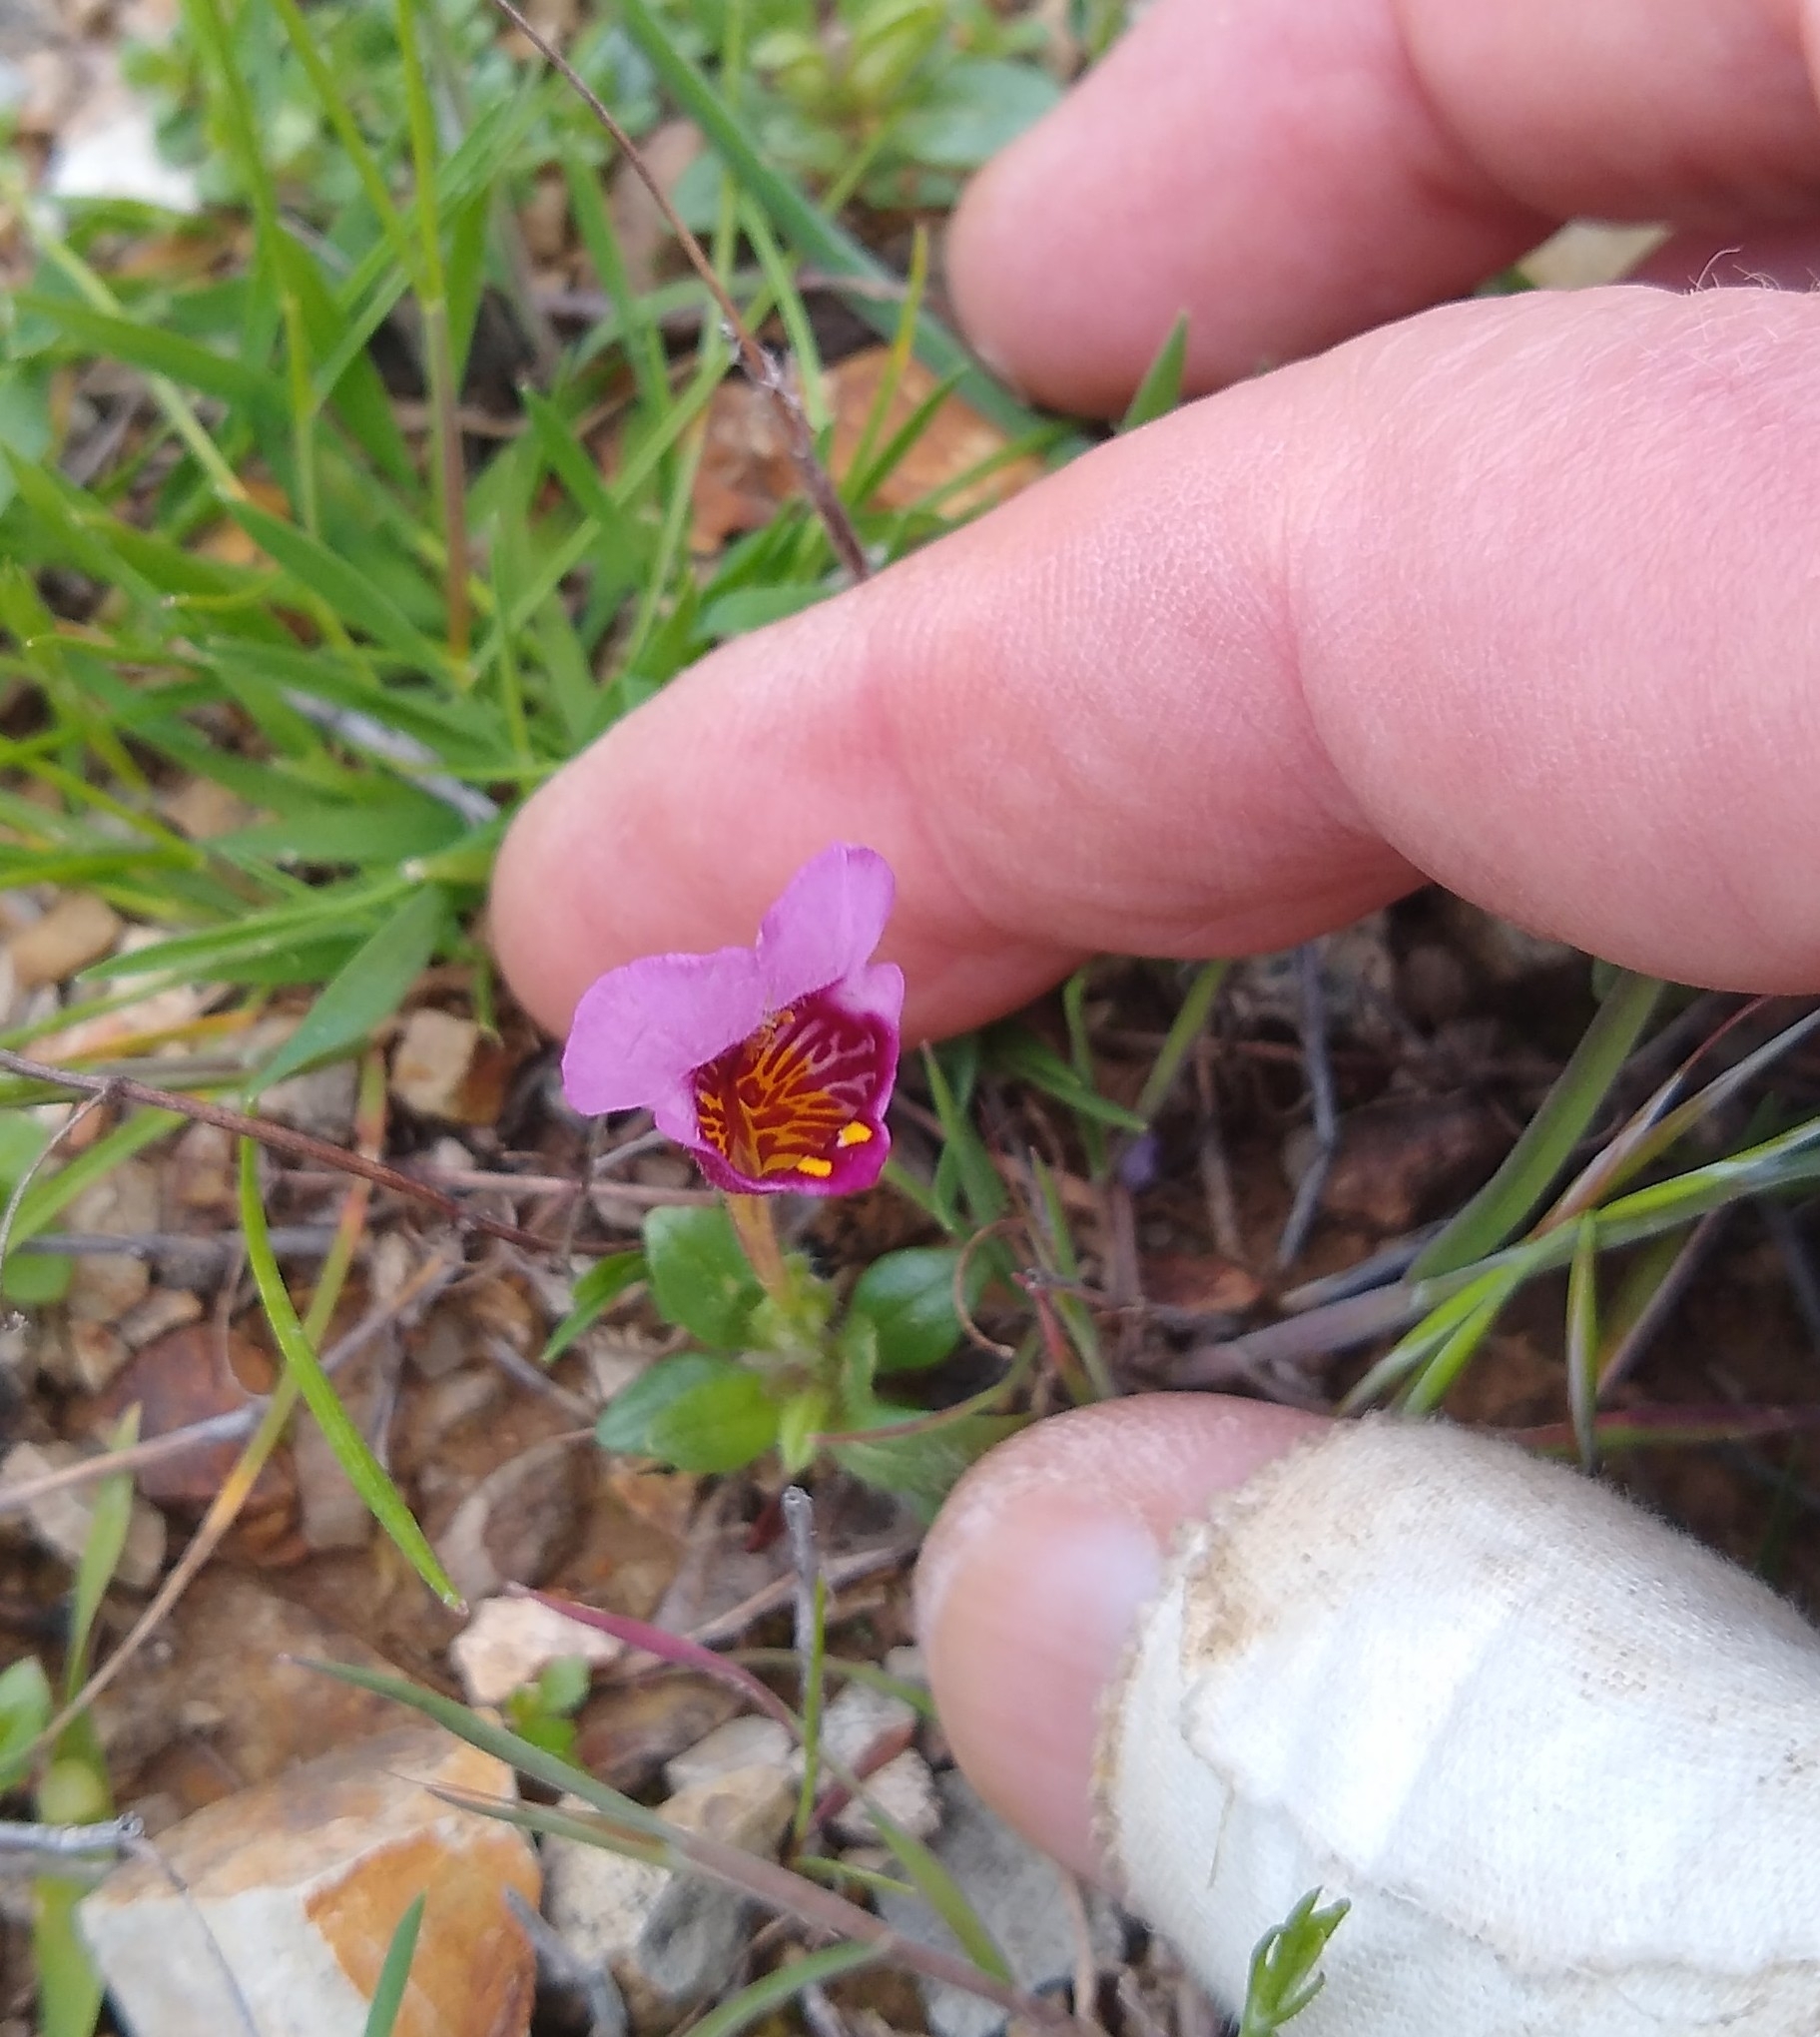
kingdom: Plantae
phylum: Tracheophyta
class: Magnoliopsida
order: Lamiales
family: Phrymaceae
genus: Diplacus
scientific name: Diplacus douglasii
